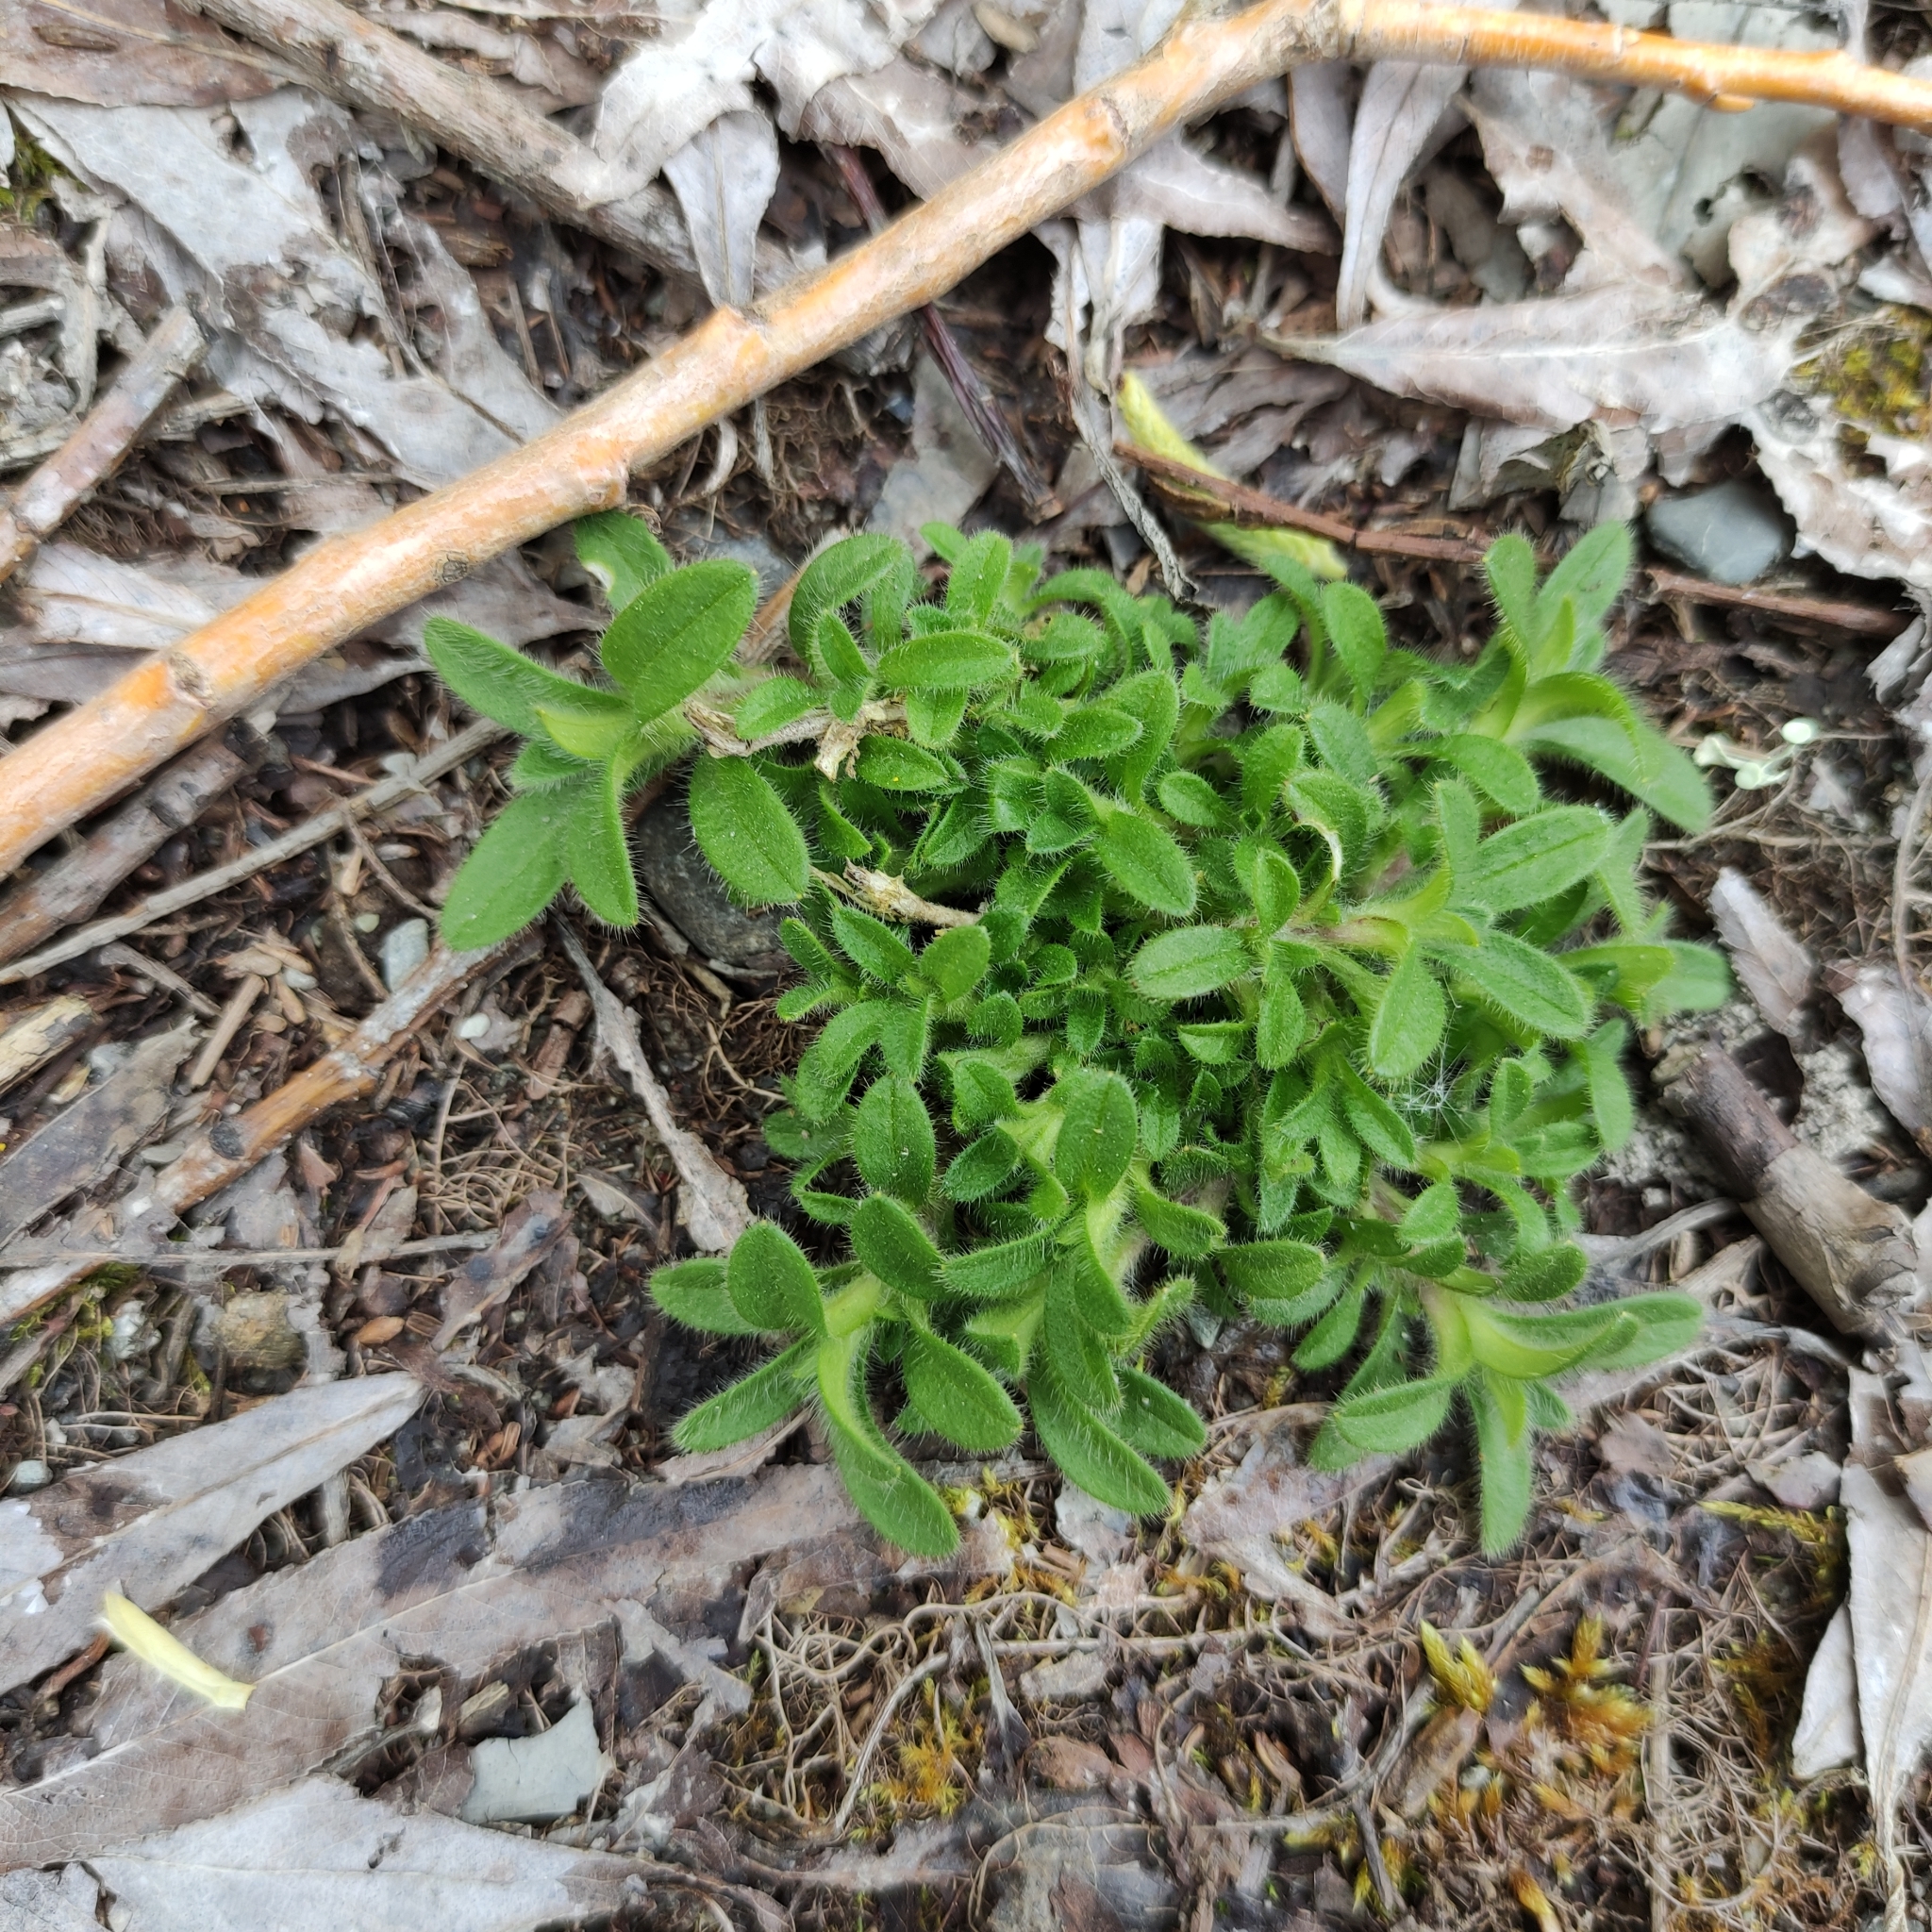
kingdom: Plantae
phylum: Tracheophyta
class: Magnoliopsida
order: Caryophyllales
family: Caryophyllaceae
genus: Cerastium
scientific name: Cerastium fontanum
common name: Common mouse-ear
